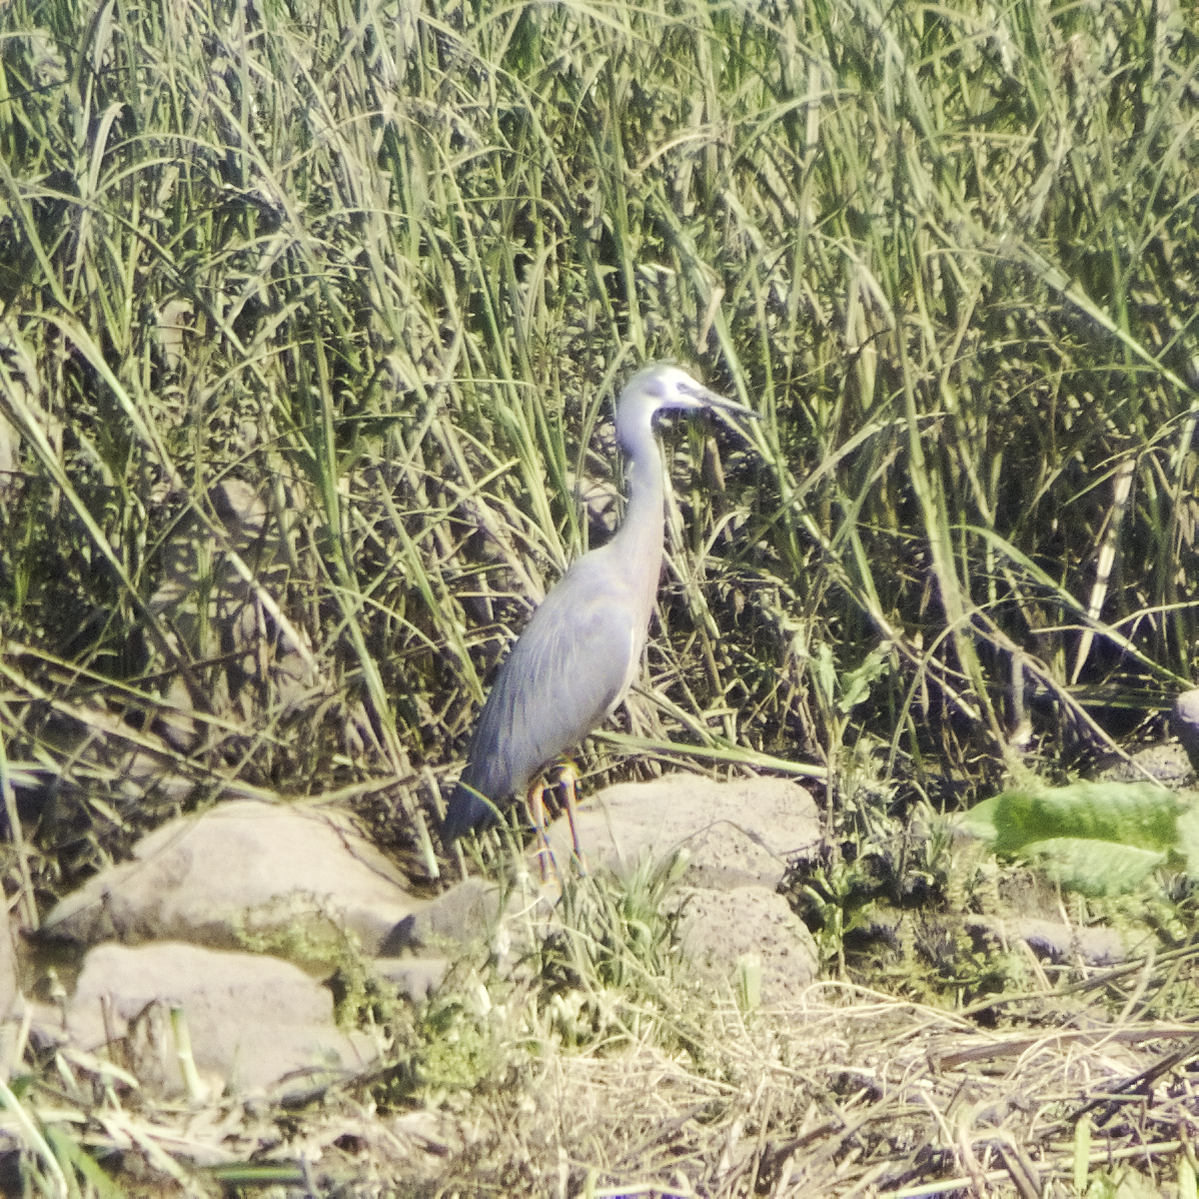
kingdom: Animalia
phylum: Chordata
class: Aves
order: Pelecaniformes
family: Ardeidae
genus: Egretta
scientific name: Egretta novaehollandiae
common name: White-faced heron
